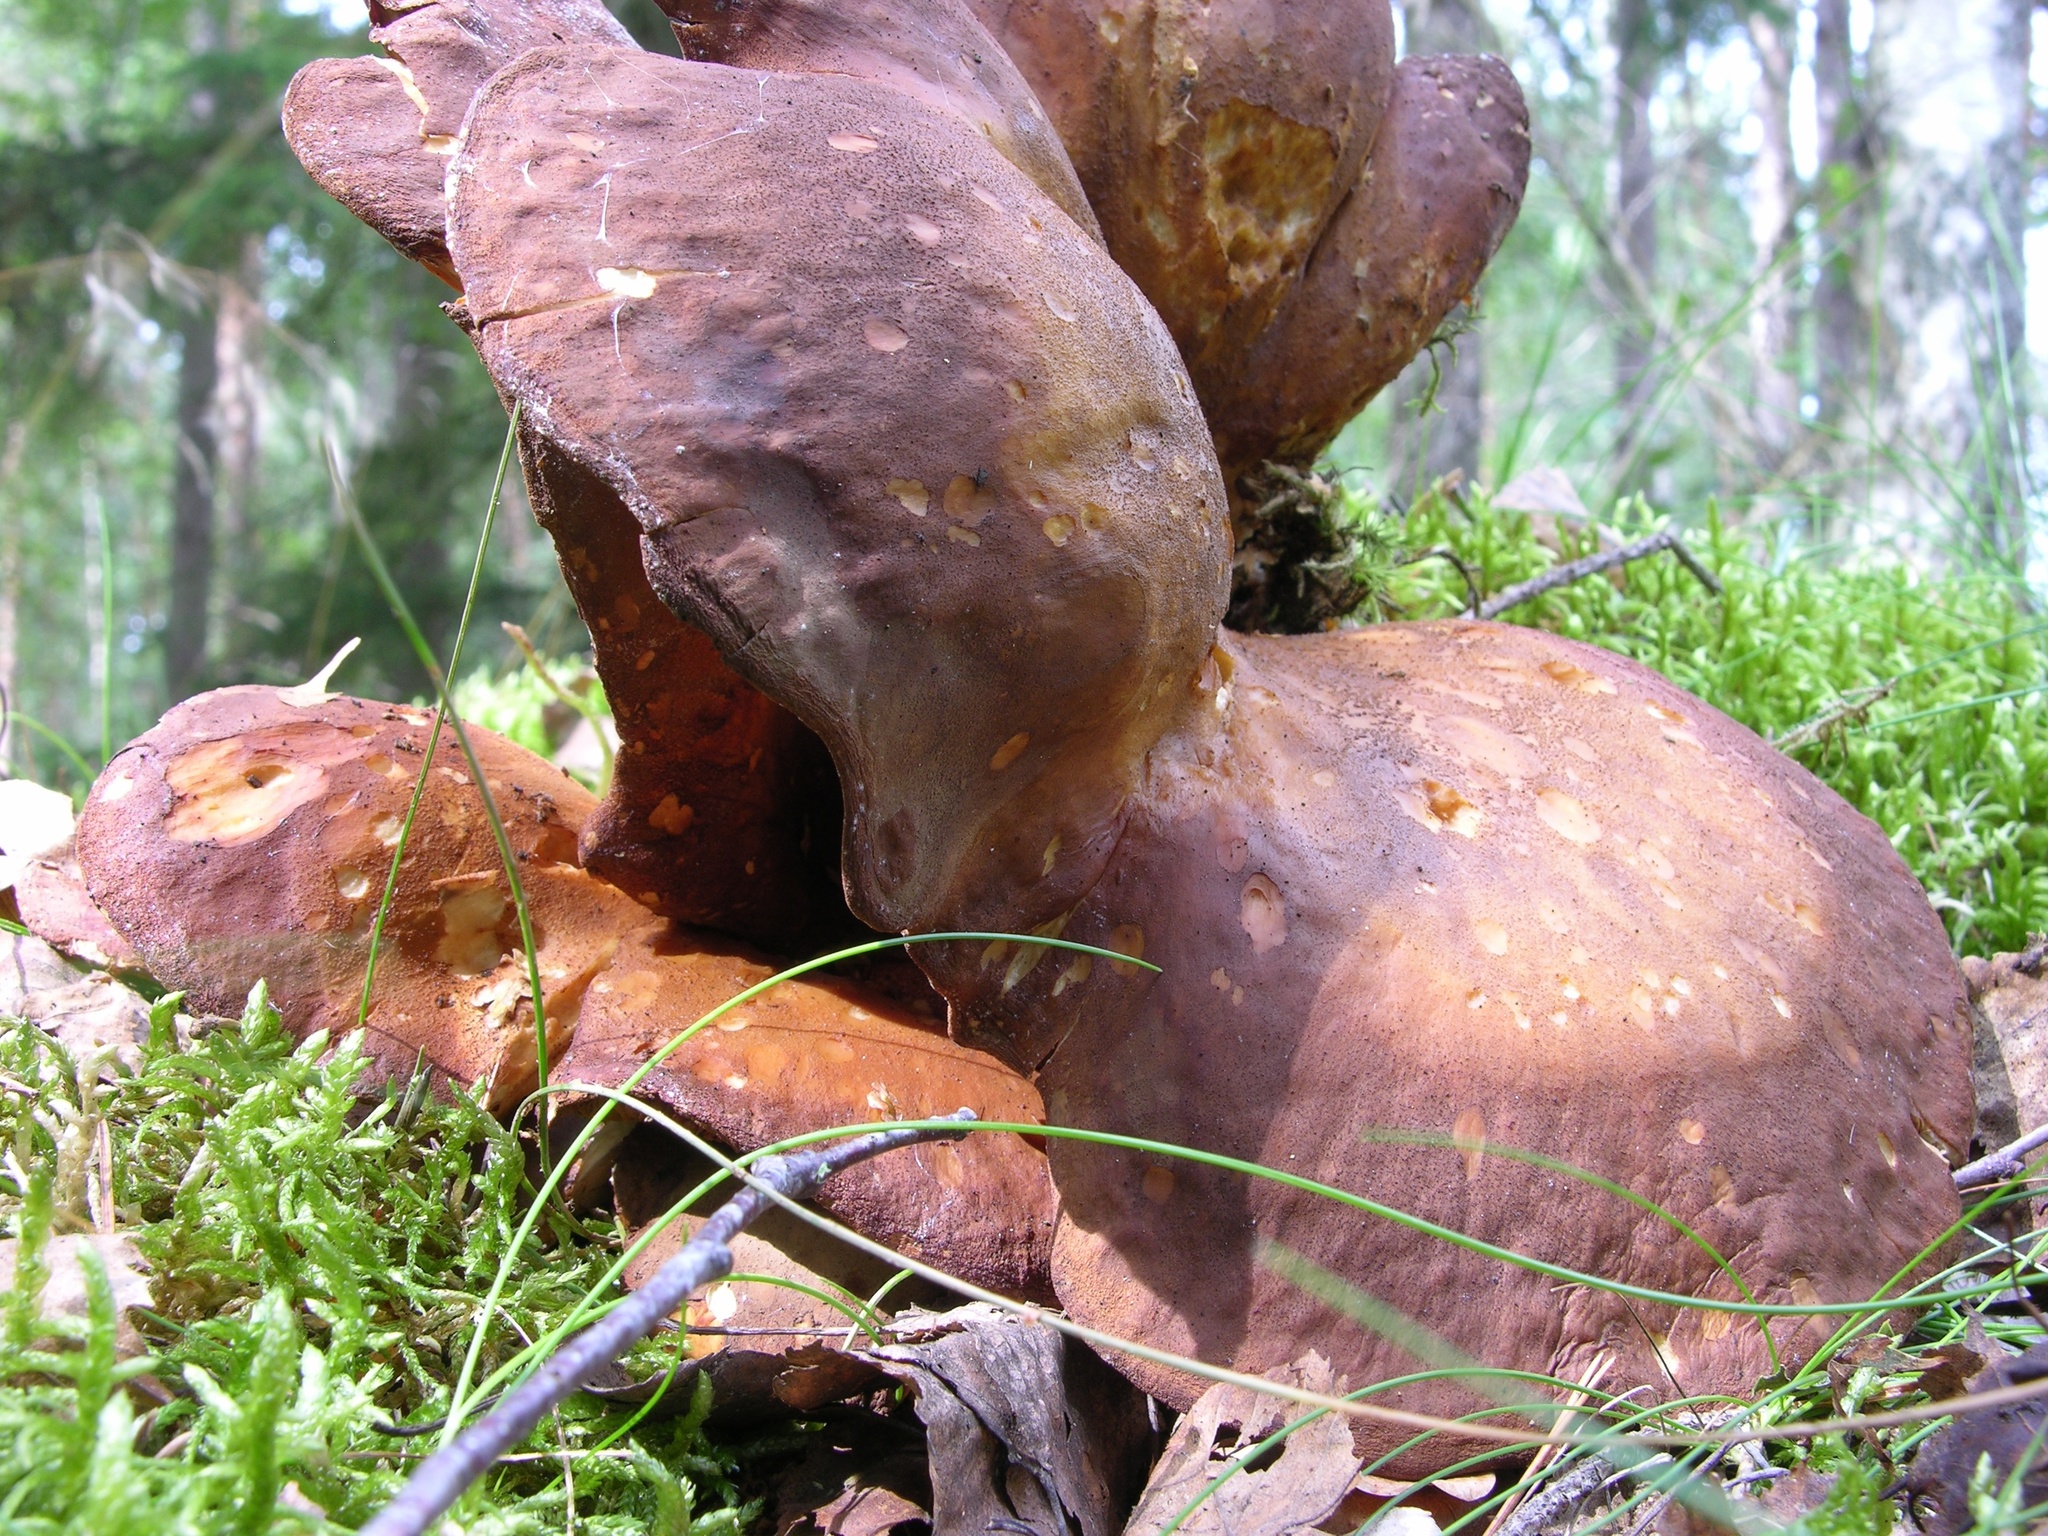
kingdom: Fungi
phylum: Basidiomycota
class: Agaricomycetes
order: Boletales
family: Tapinellaceae
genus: Tapinella
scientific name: Tapinella atrotomentosa
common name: Velvet rollrim
